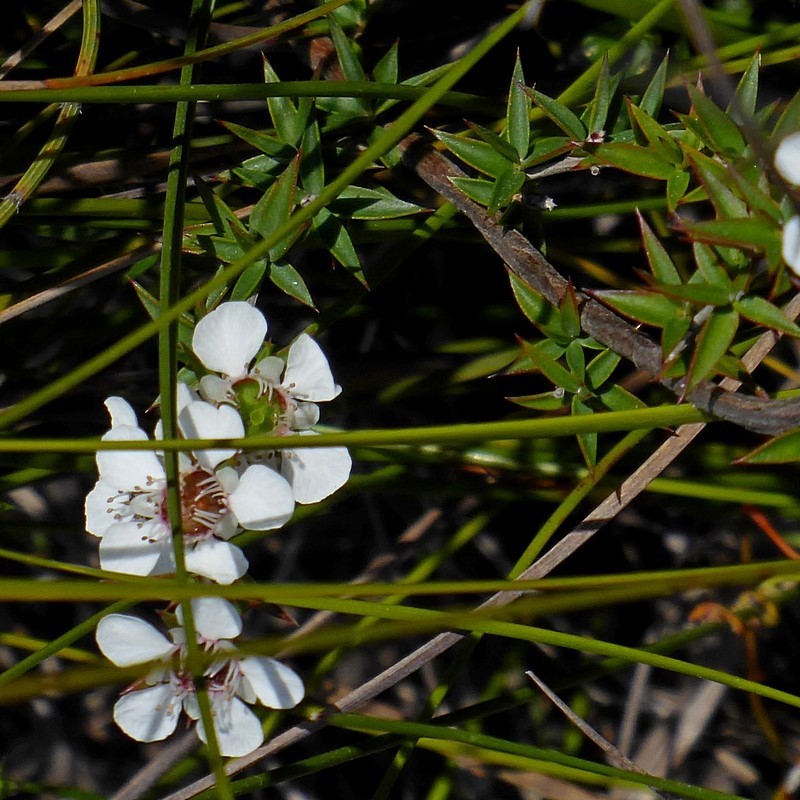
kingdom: Plantae
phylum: Tracheophyta
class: Magnoliopsida
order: Myrtales
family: Myrtaceae
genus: Leptospermum
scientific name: Leptospermum continentale
